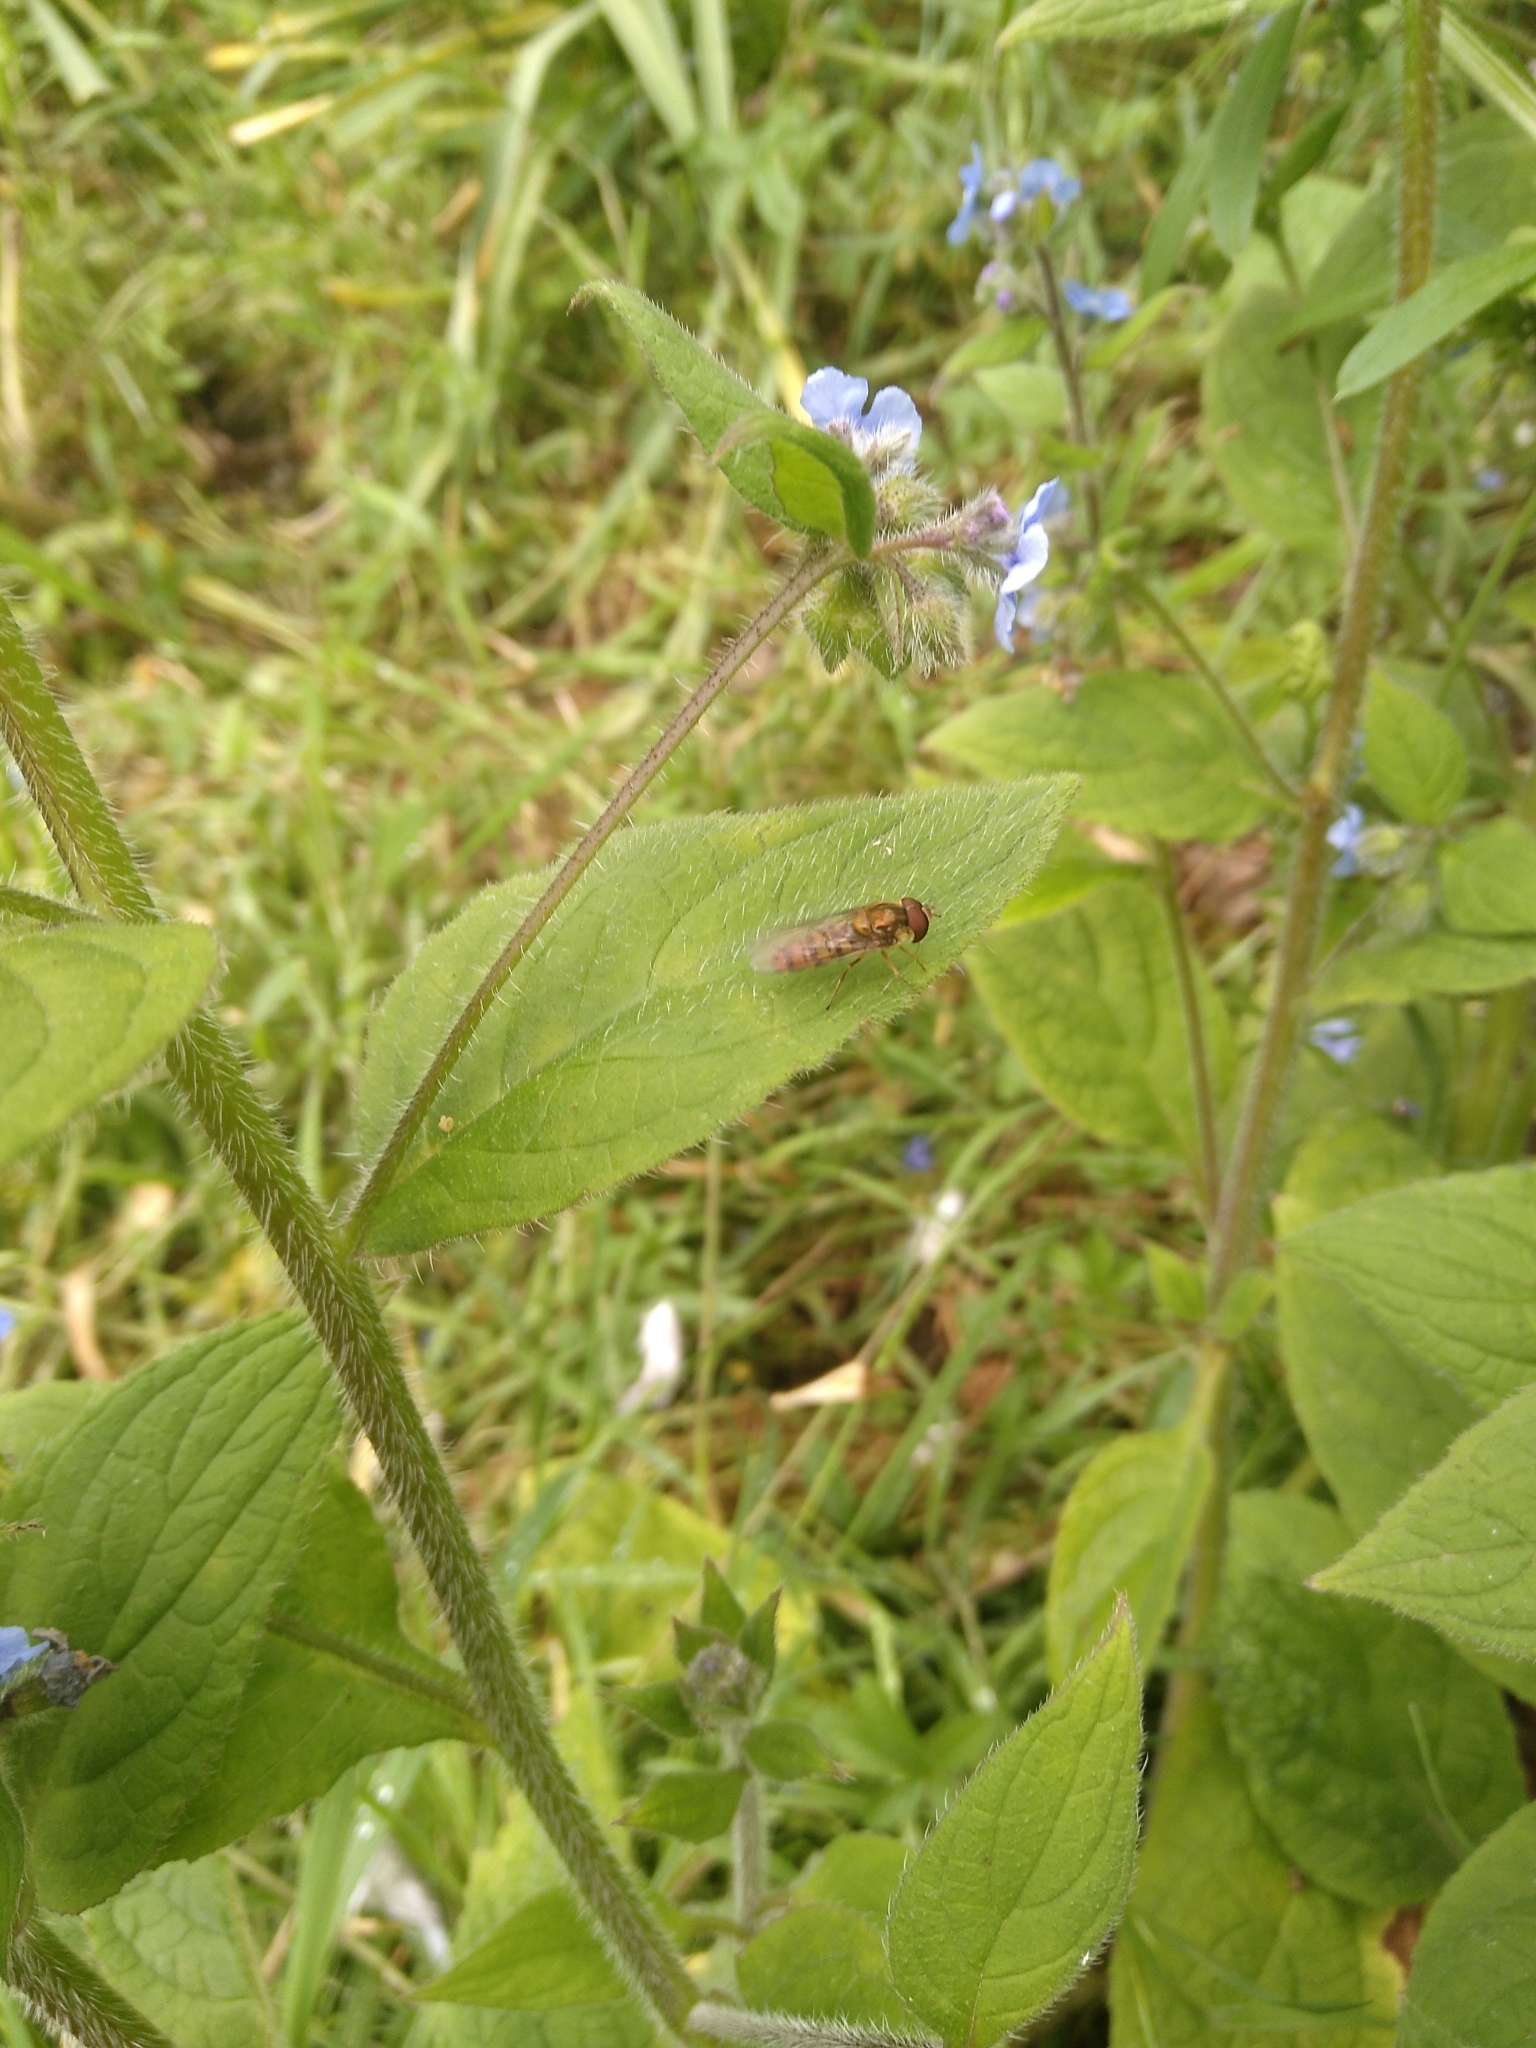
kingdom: Animalia
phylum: Arthropoda
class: Insecta
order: Diptera
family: Syrphidae
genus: Episyrphus
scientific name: Episyrphus balteatus
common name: Marmalade hoverfly
